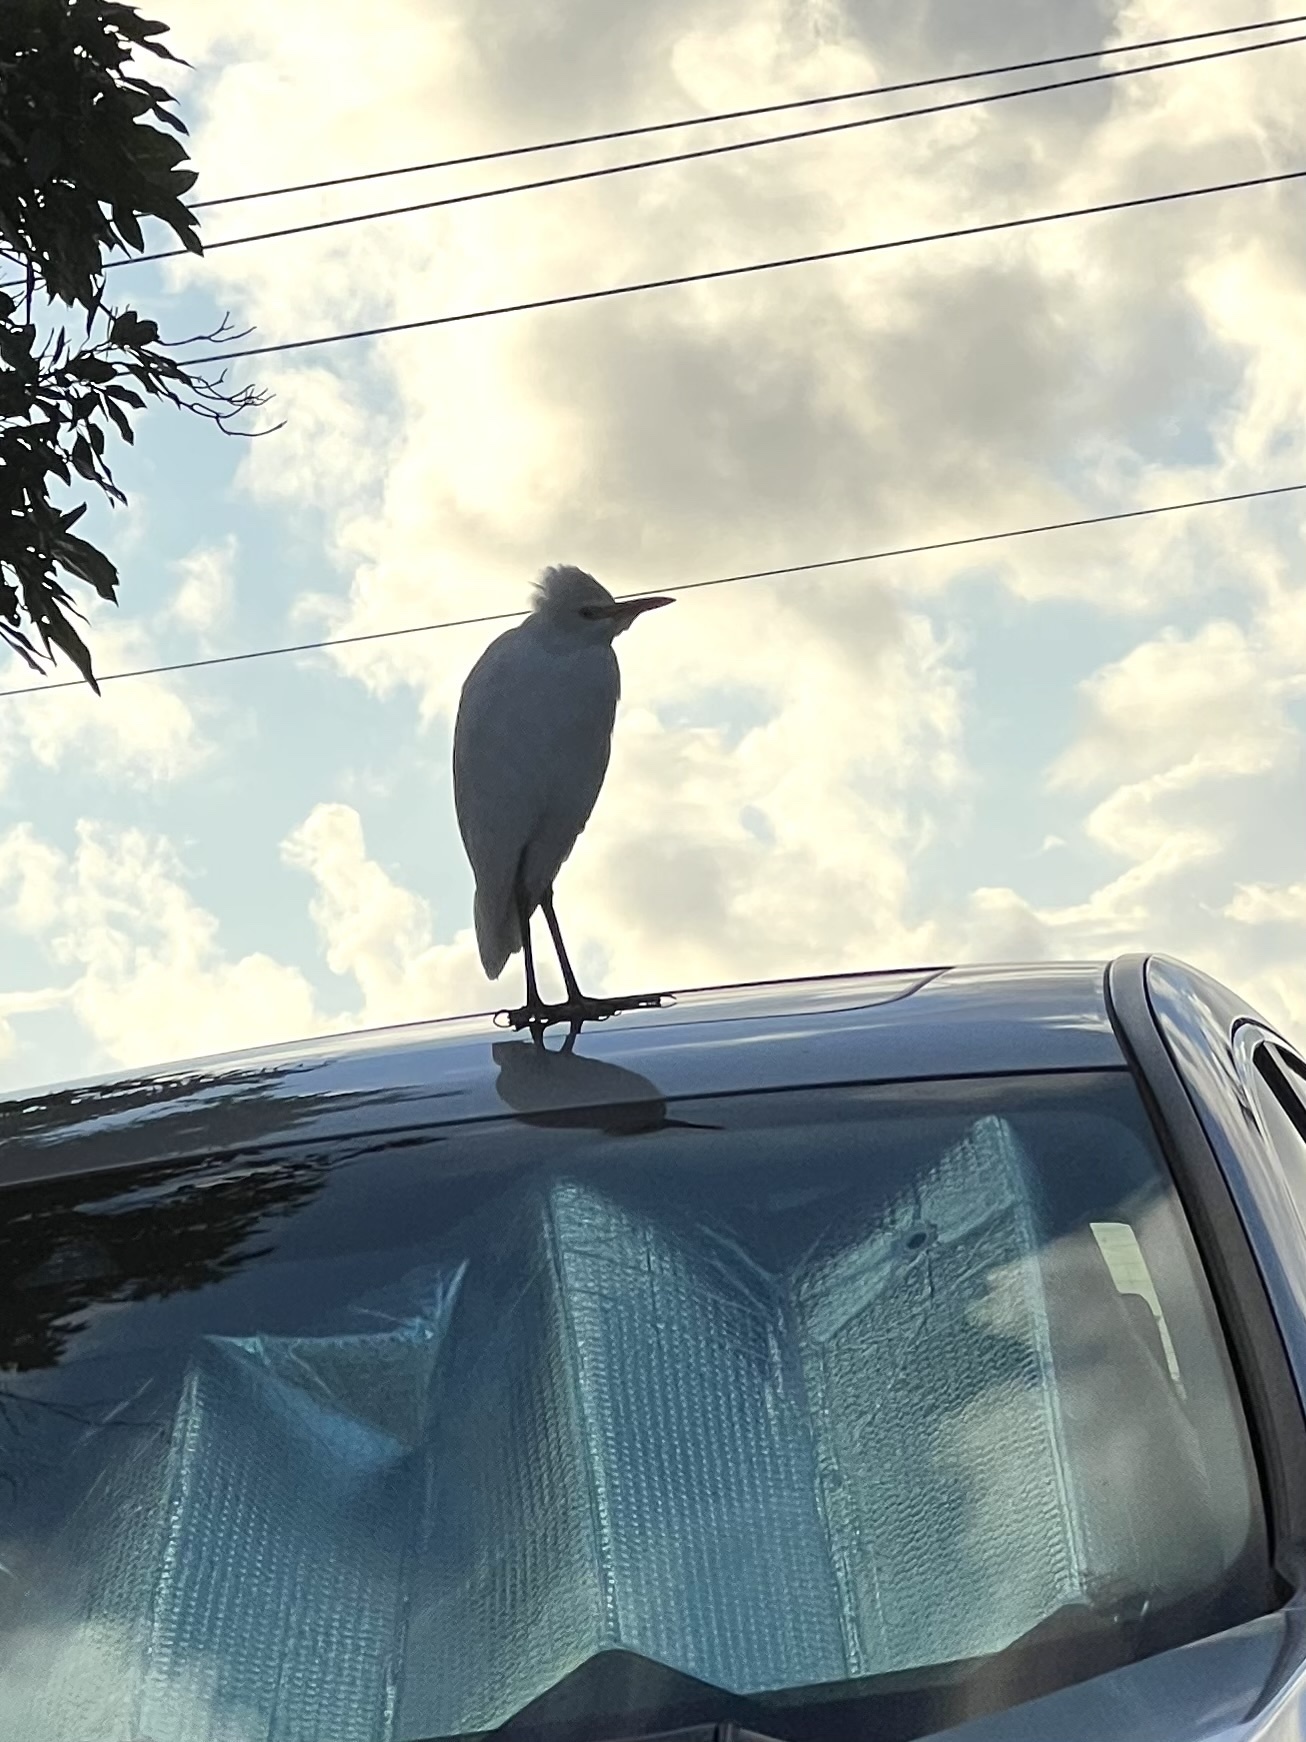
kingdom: Animalia
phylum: Chordata
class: Aves
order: Pelecaniformes
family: Ardeidae
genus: Bubulcus
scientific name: Bubulcus ibis
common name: Cattle egret
